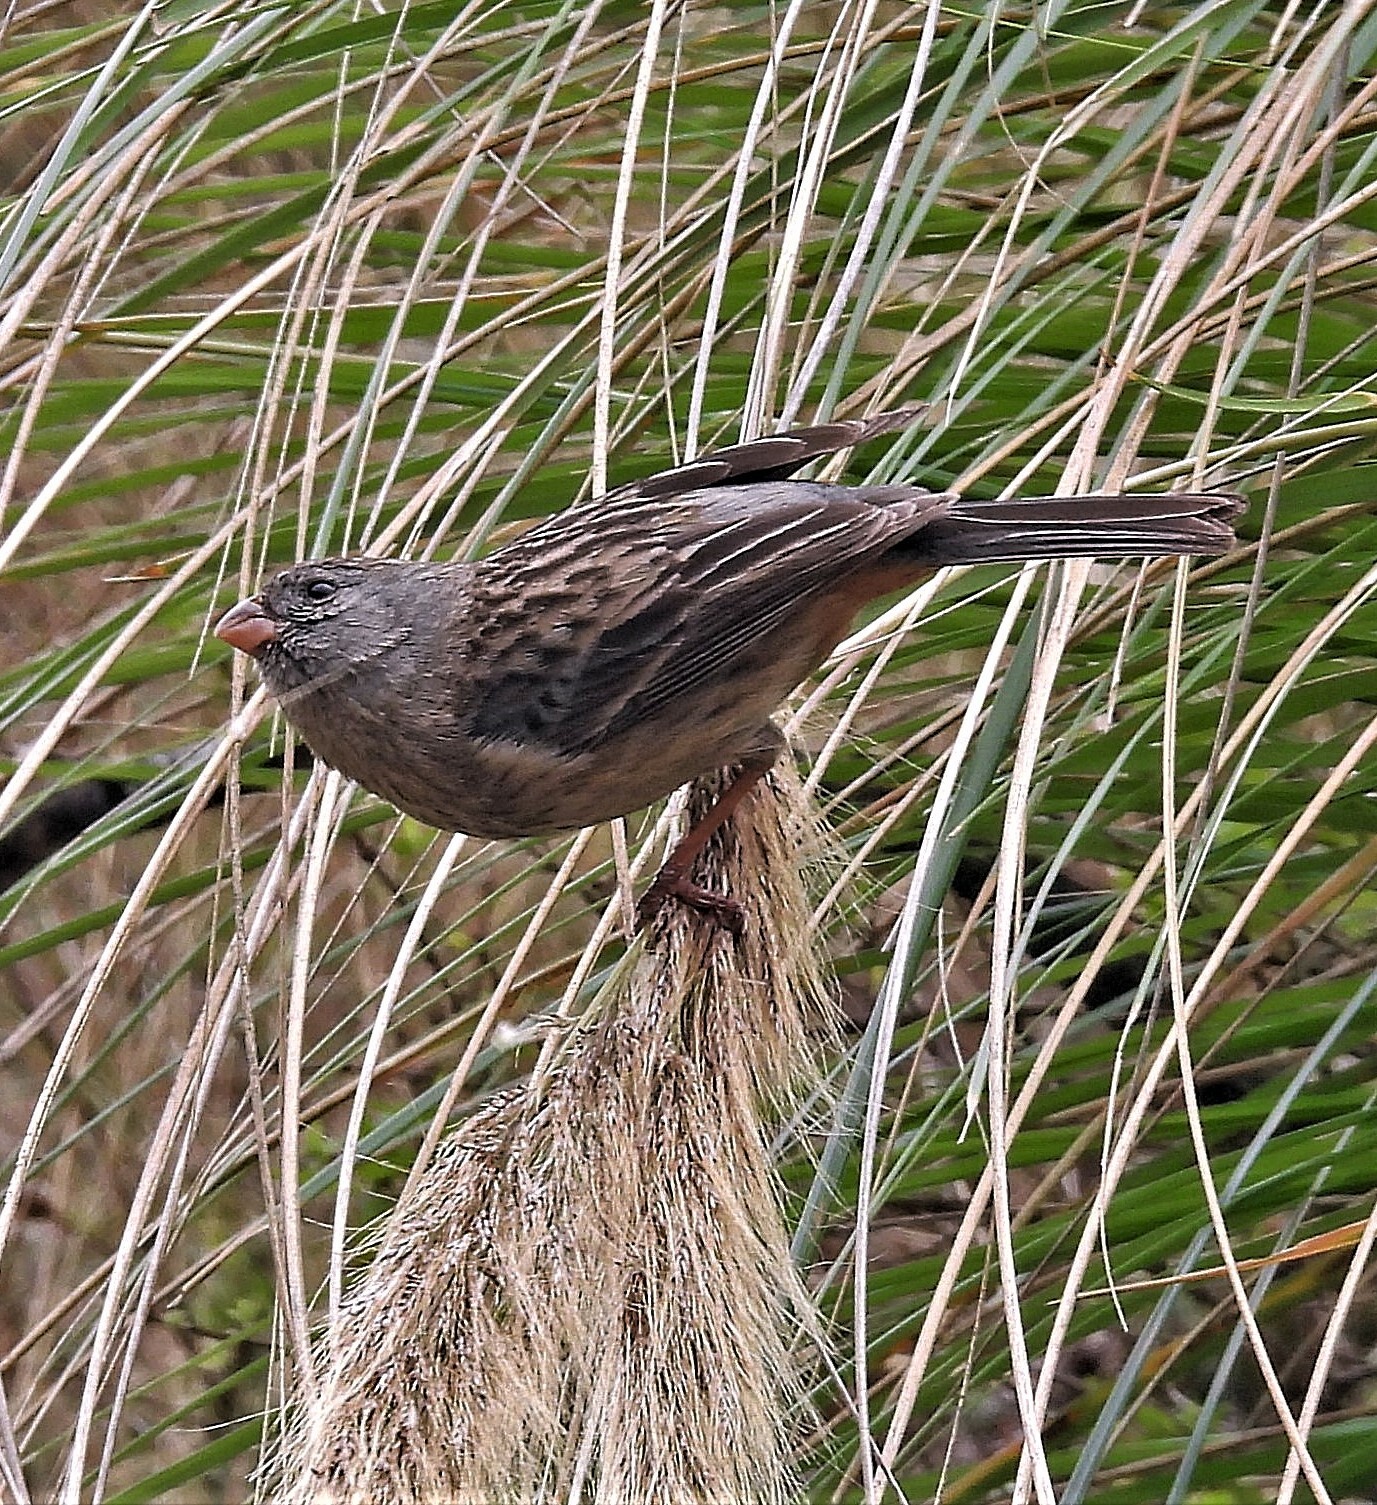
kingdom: Animalia
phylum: Chordata
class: Aves
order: Passeriformes
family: Thraupidae
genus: Catamenia
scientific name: Catamenia inornata
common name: Plain-colored seedeater
